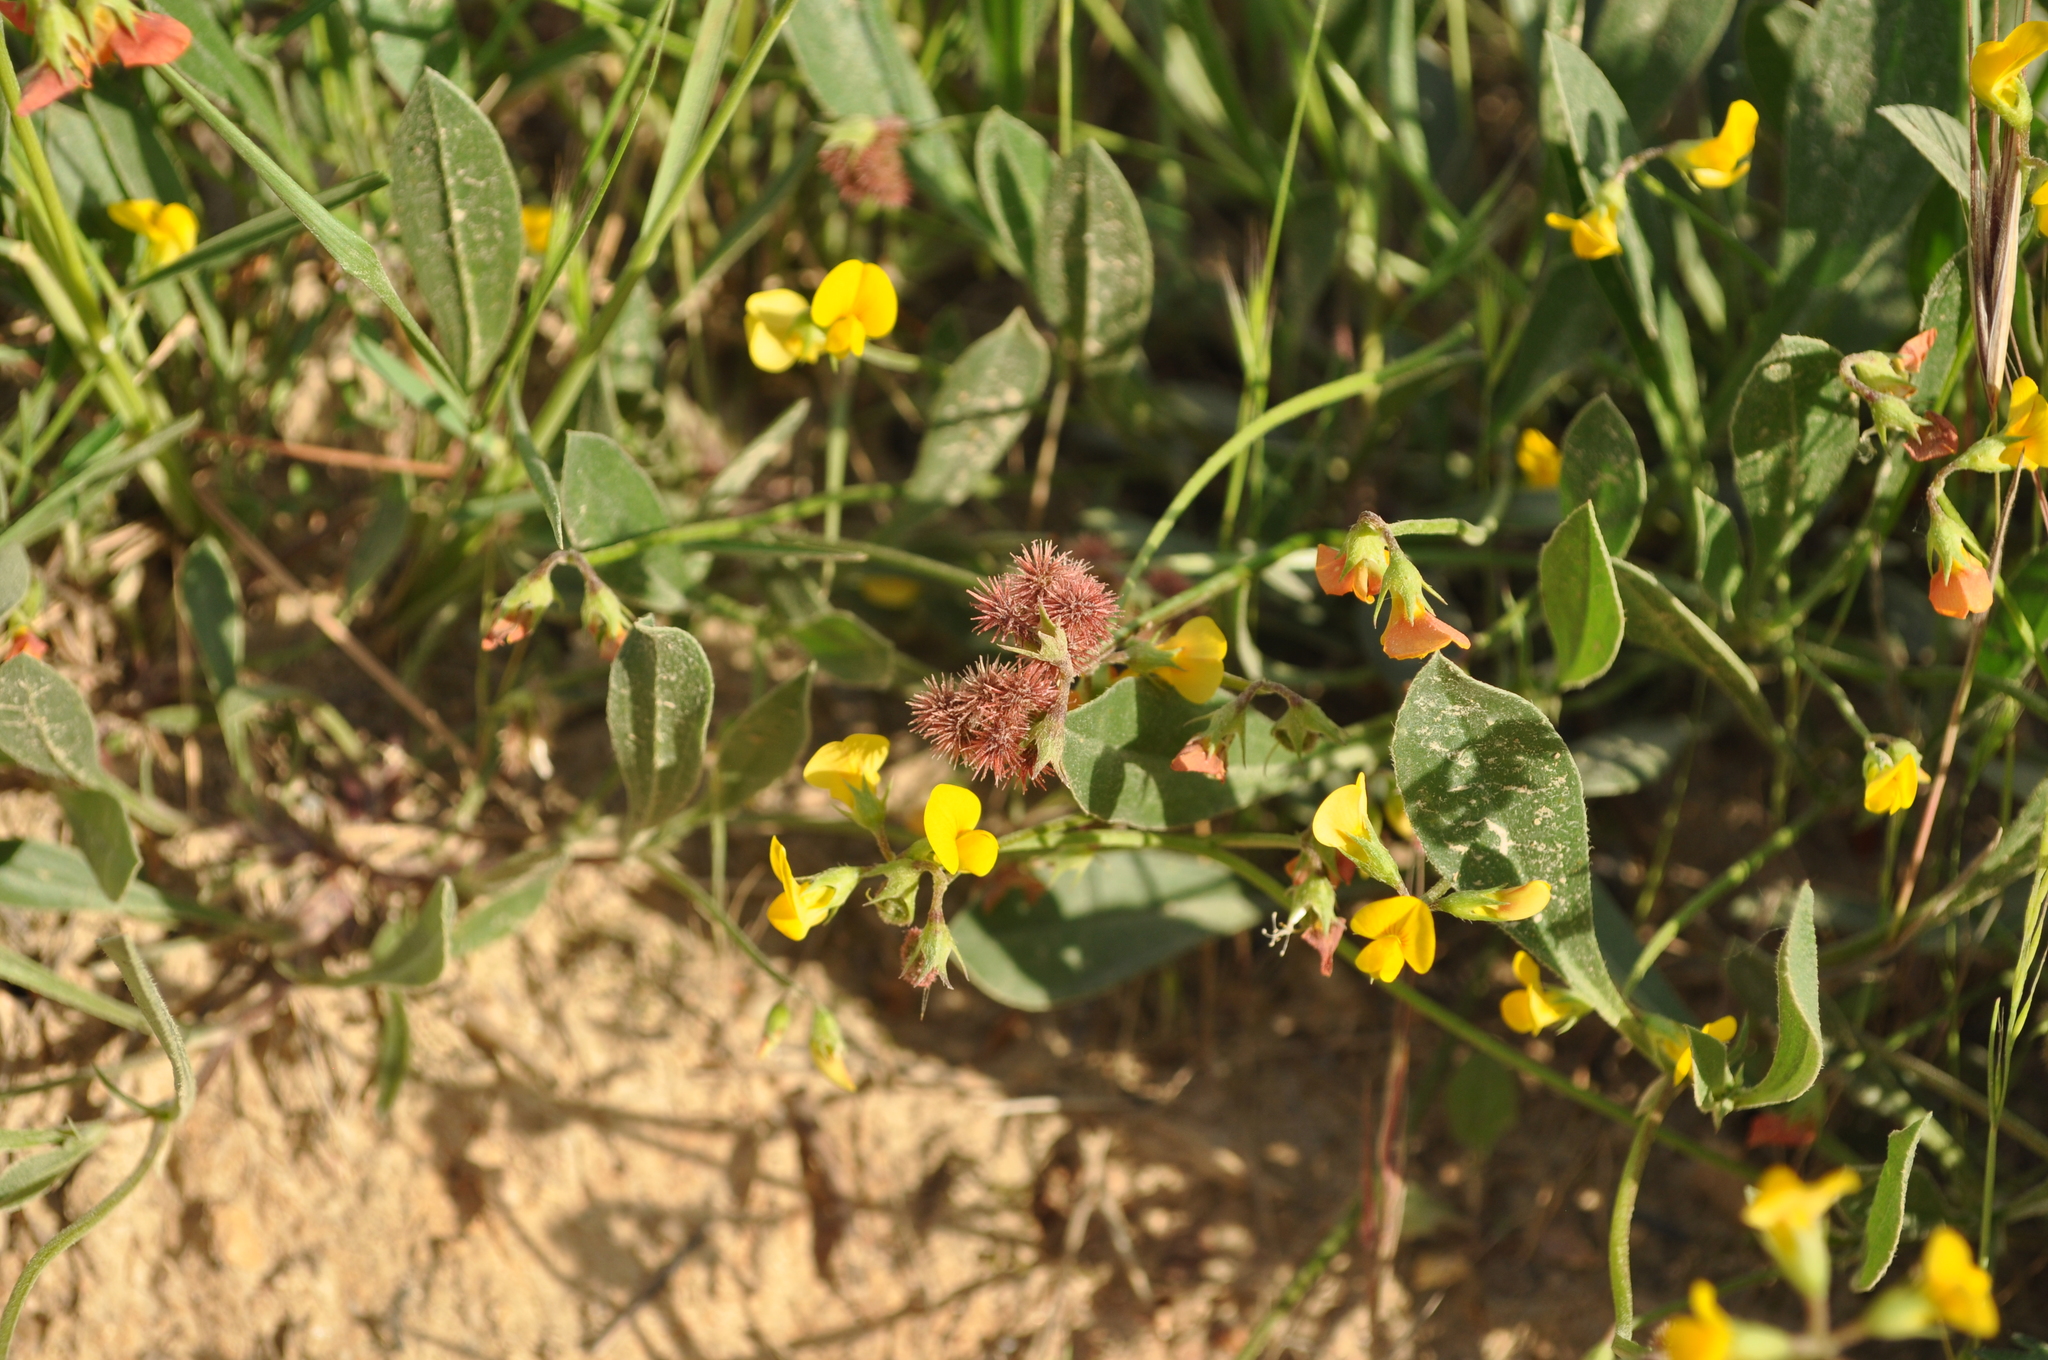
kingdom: Plantae
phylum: Tracheophyta
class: Magnoliopsida
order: Fabales
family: Fabaceae
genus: Scorpiurus
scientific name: Scorpiurus muricatus
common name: Caterpillar-plant
